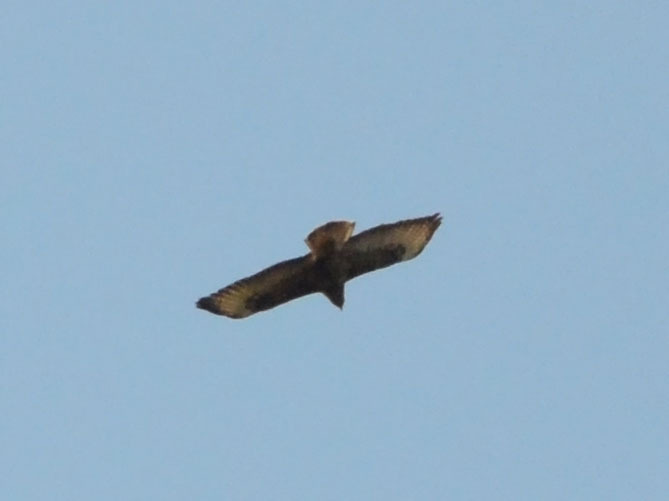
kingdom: Animalia
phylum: Chordata
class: Aves
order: Accipitriformes
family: Accipitridae
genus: Buteo
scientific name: Buteo buteo
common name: Common buzzard
